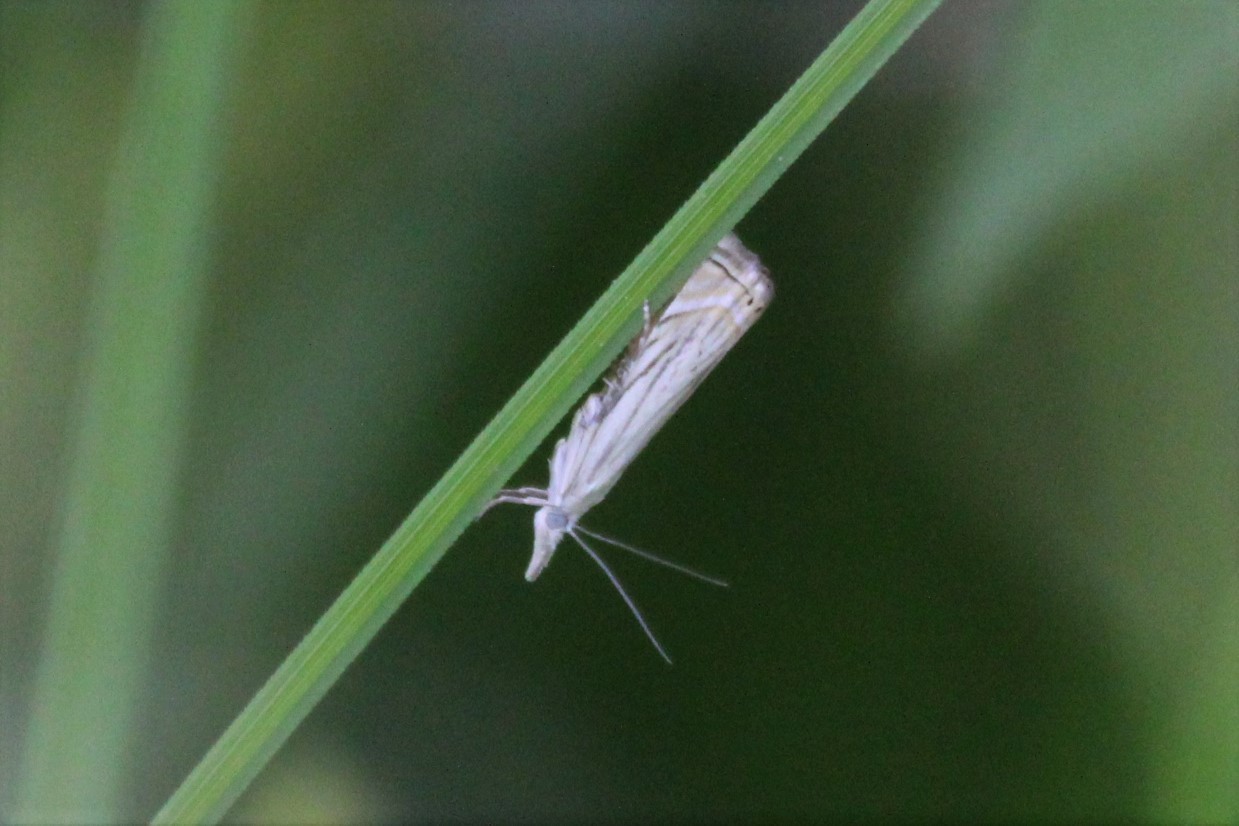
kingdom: Animalia
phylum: Arthropoda
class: Insecta
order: Lepidoptera
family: Crambidae
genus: Chrysoteuchia
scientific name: Chrysoteuchia topiarius
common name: Topiary grass-veneer
